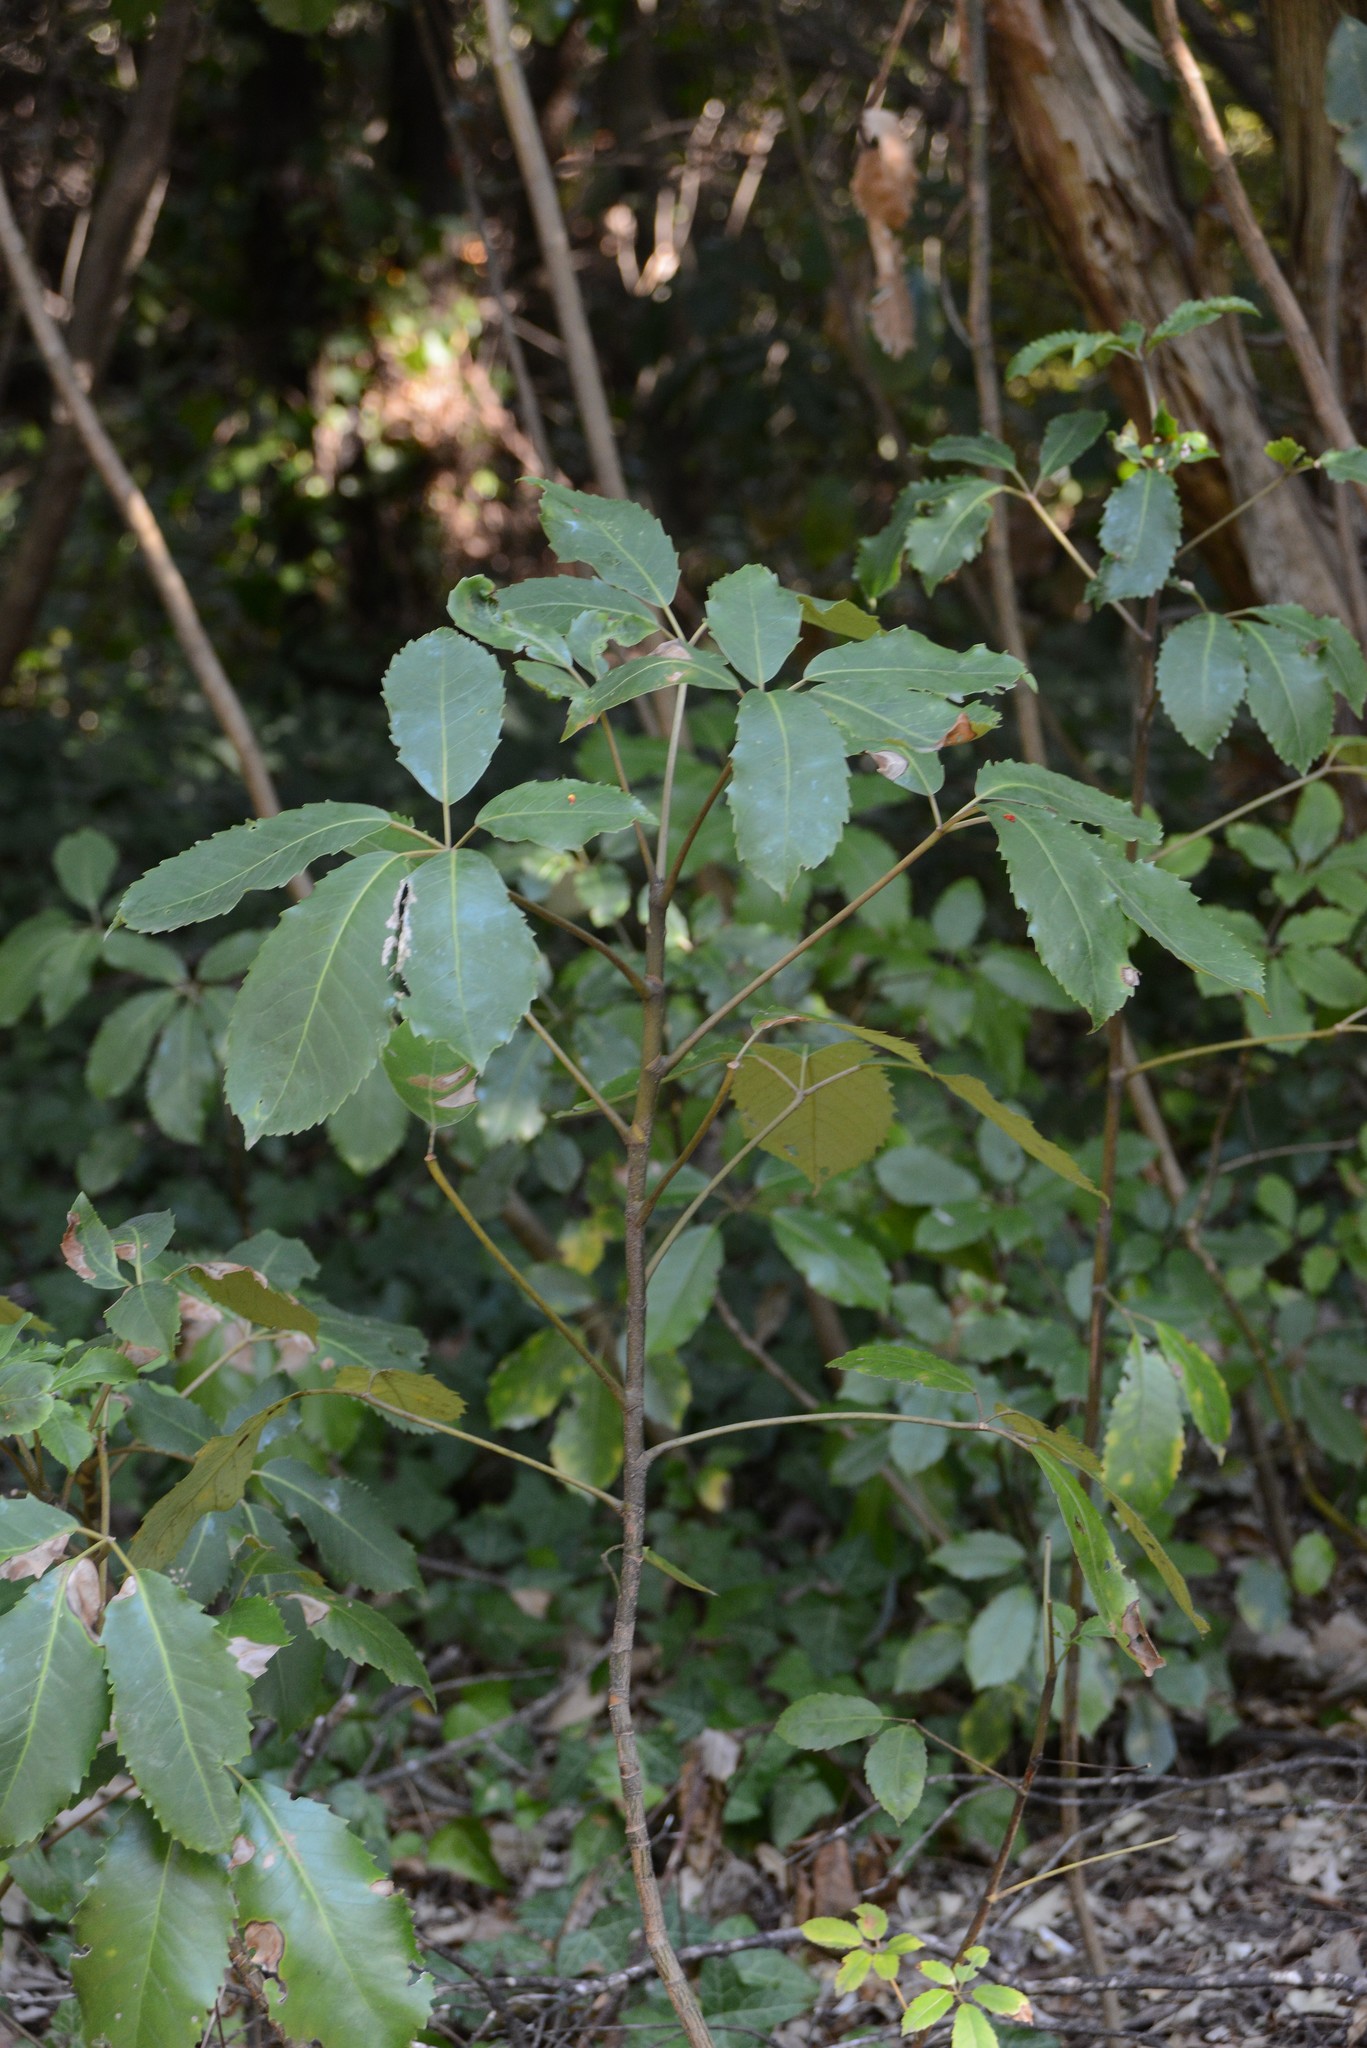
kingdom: Plantae
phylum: Tracheophyta
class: Magnoliopsida
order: Apiales
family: Araliaceae
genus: Neopanax
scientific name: Neopanax arboreus
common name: Five-fingers
